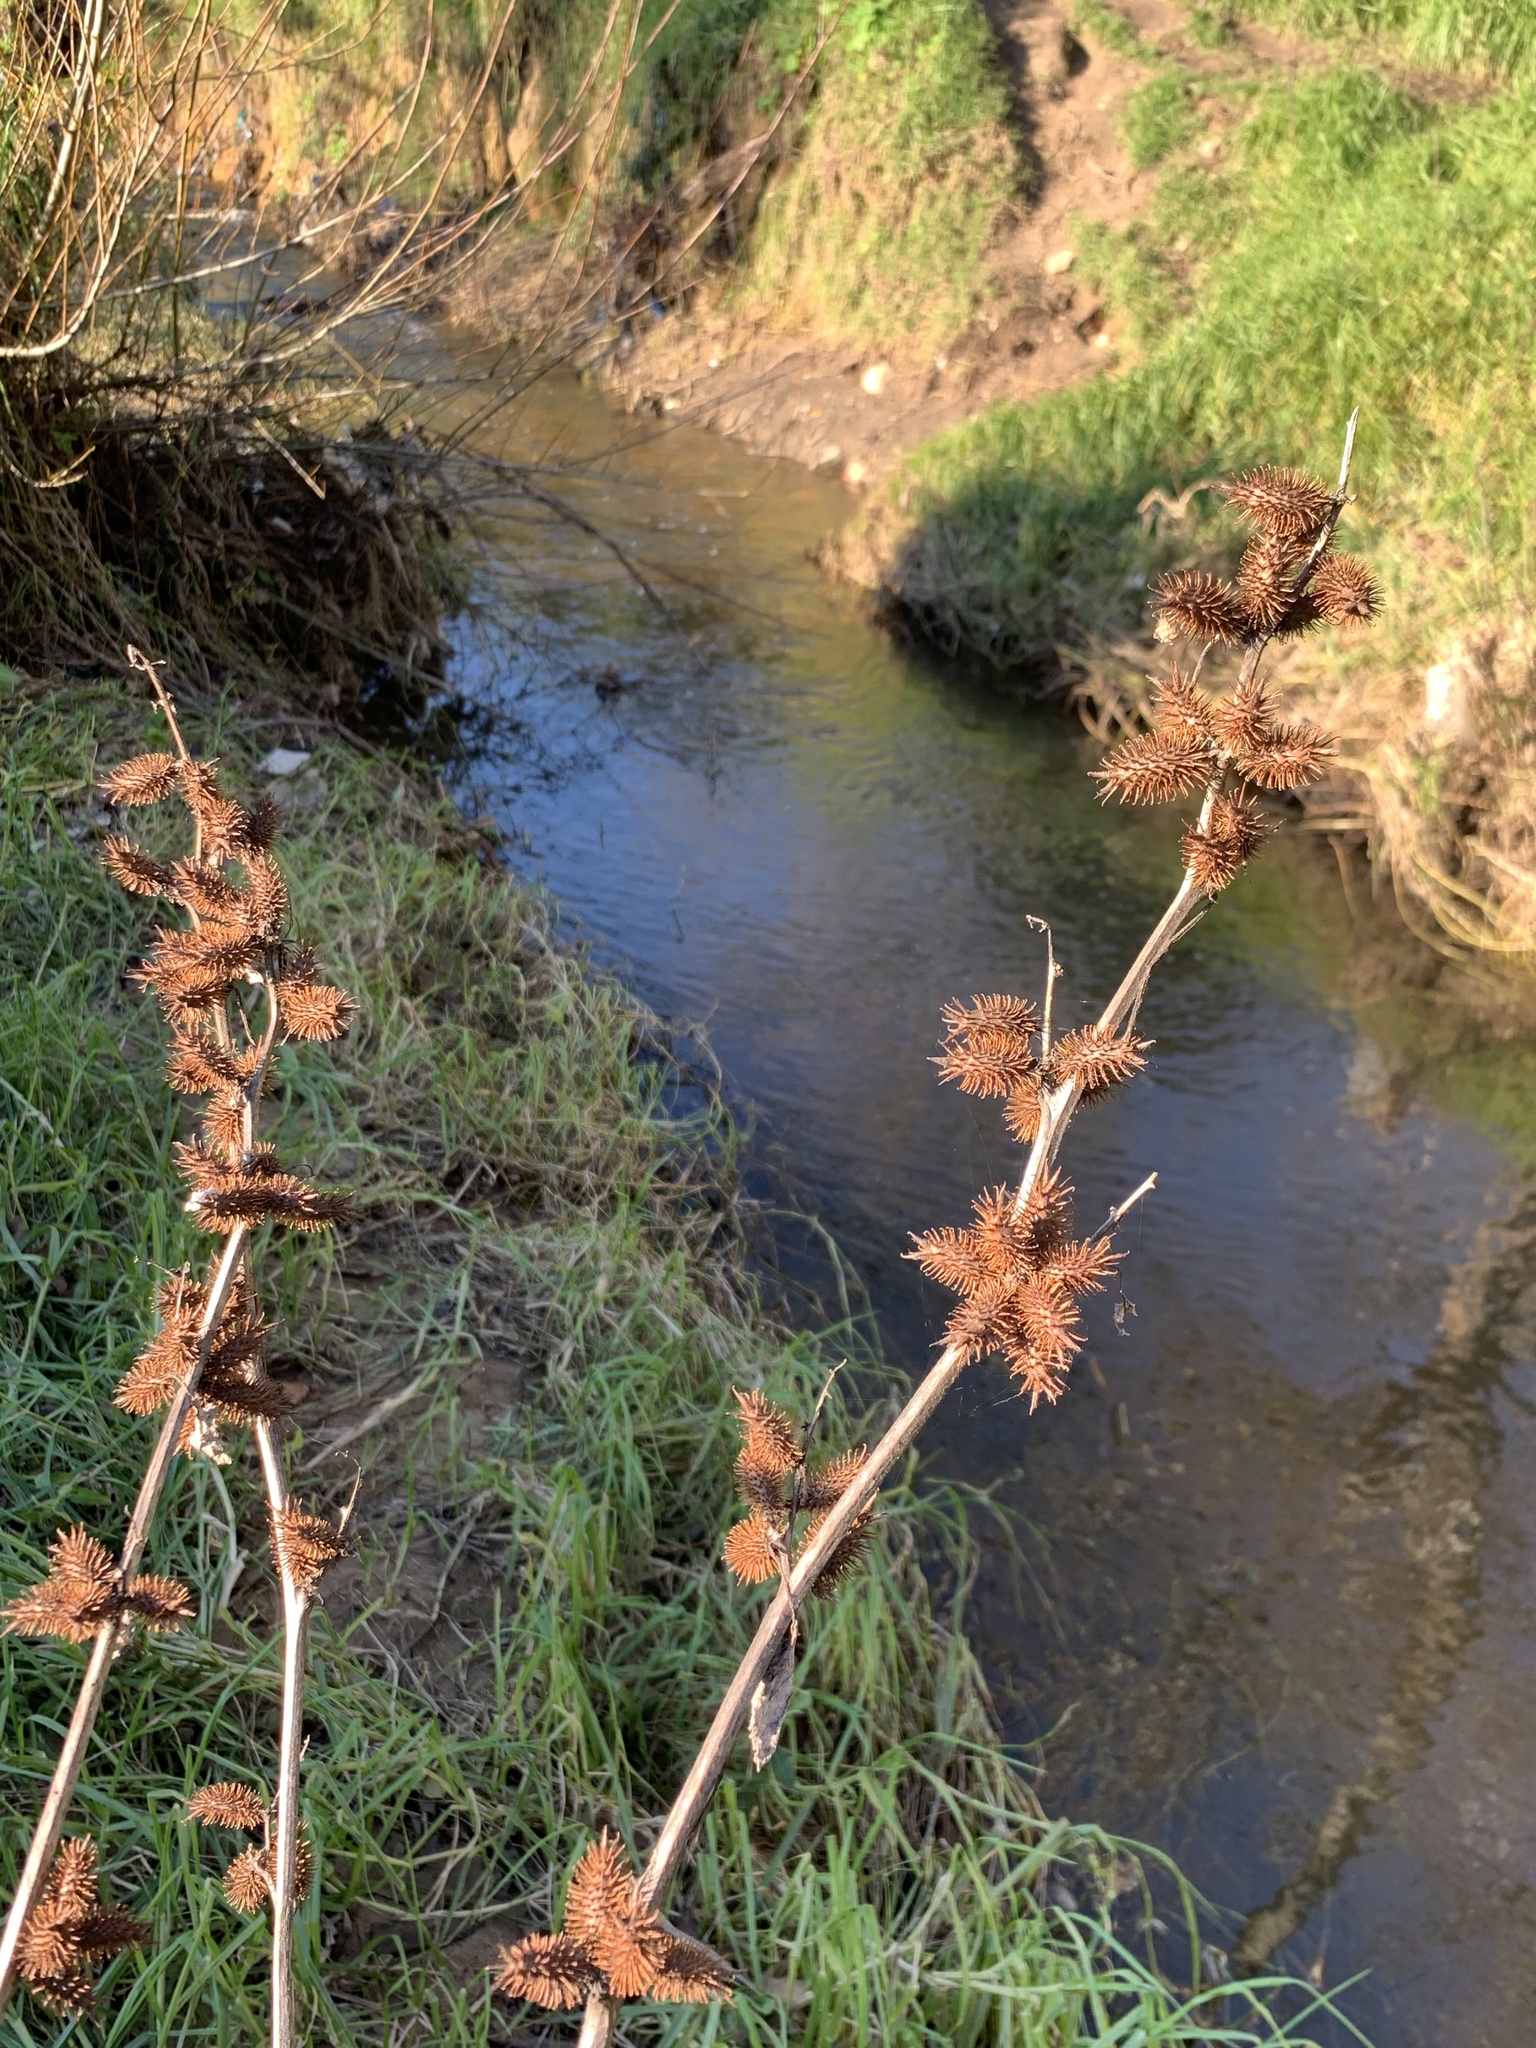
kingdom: Plantae
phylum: Tracheophyta
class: Magnoliopsida
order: Asterales
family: Asteraceae
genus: Xanthium
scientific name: Xanthium strumarium
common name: Rough cocklebur
